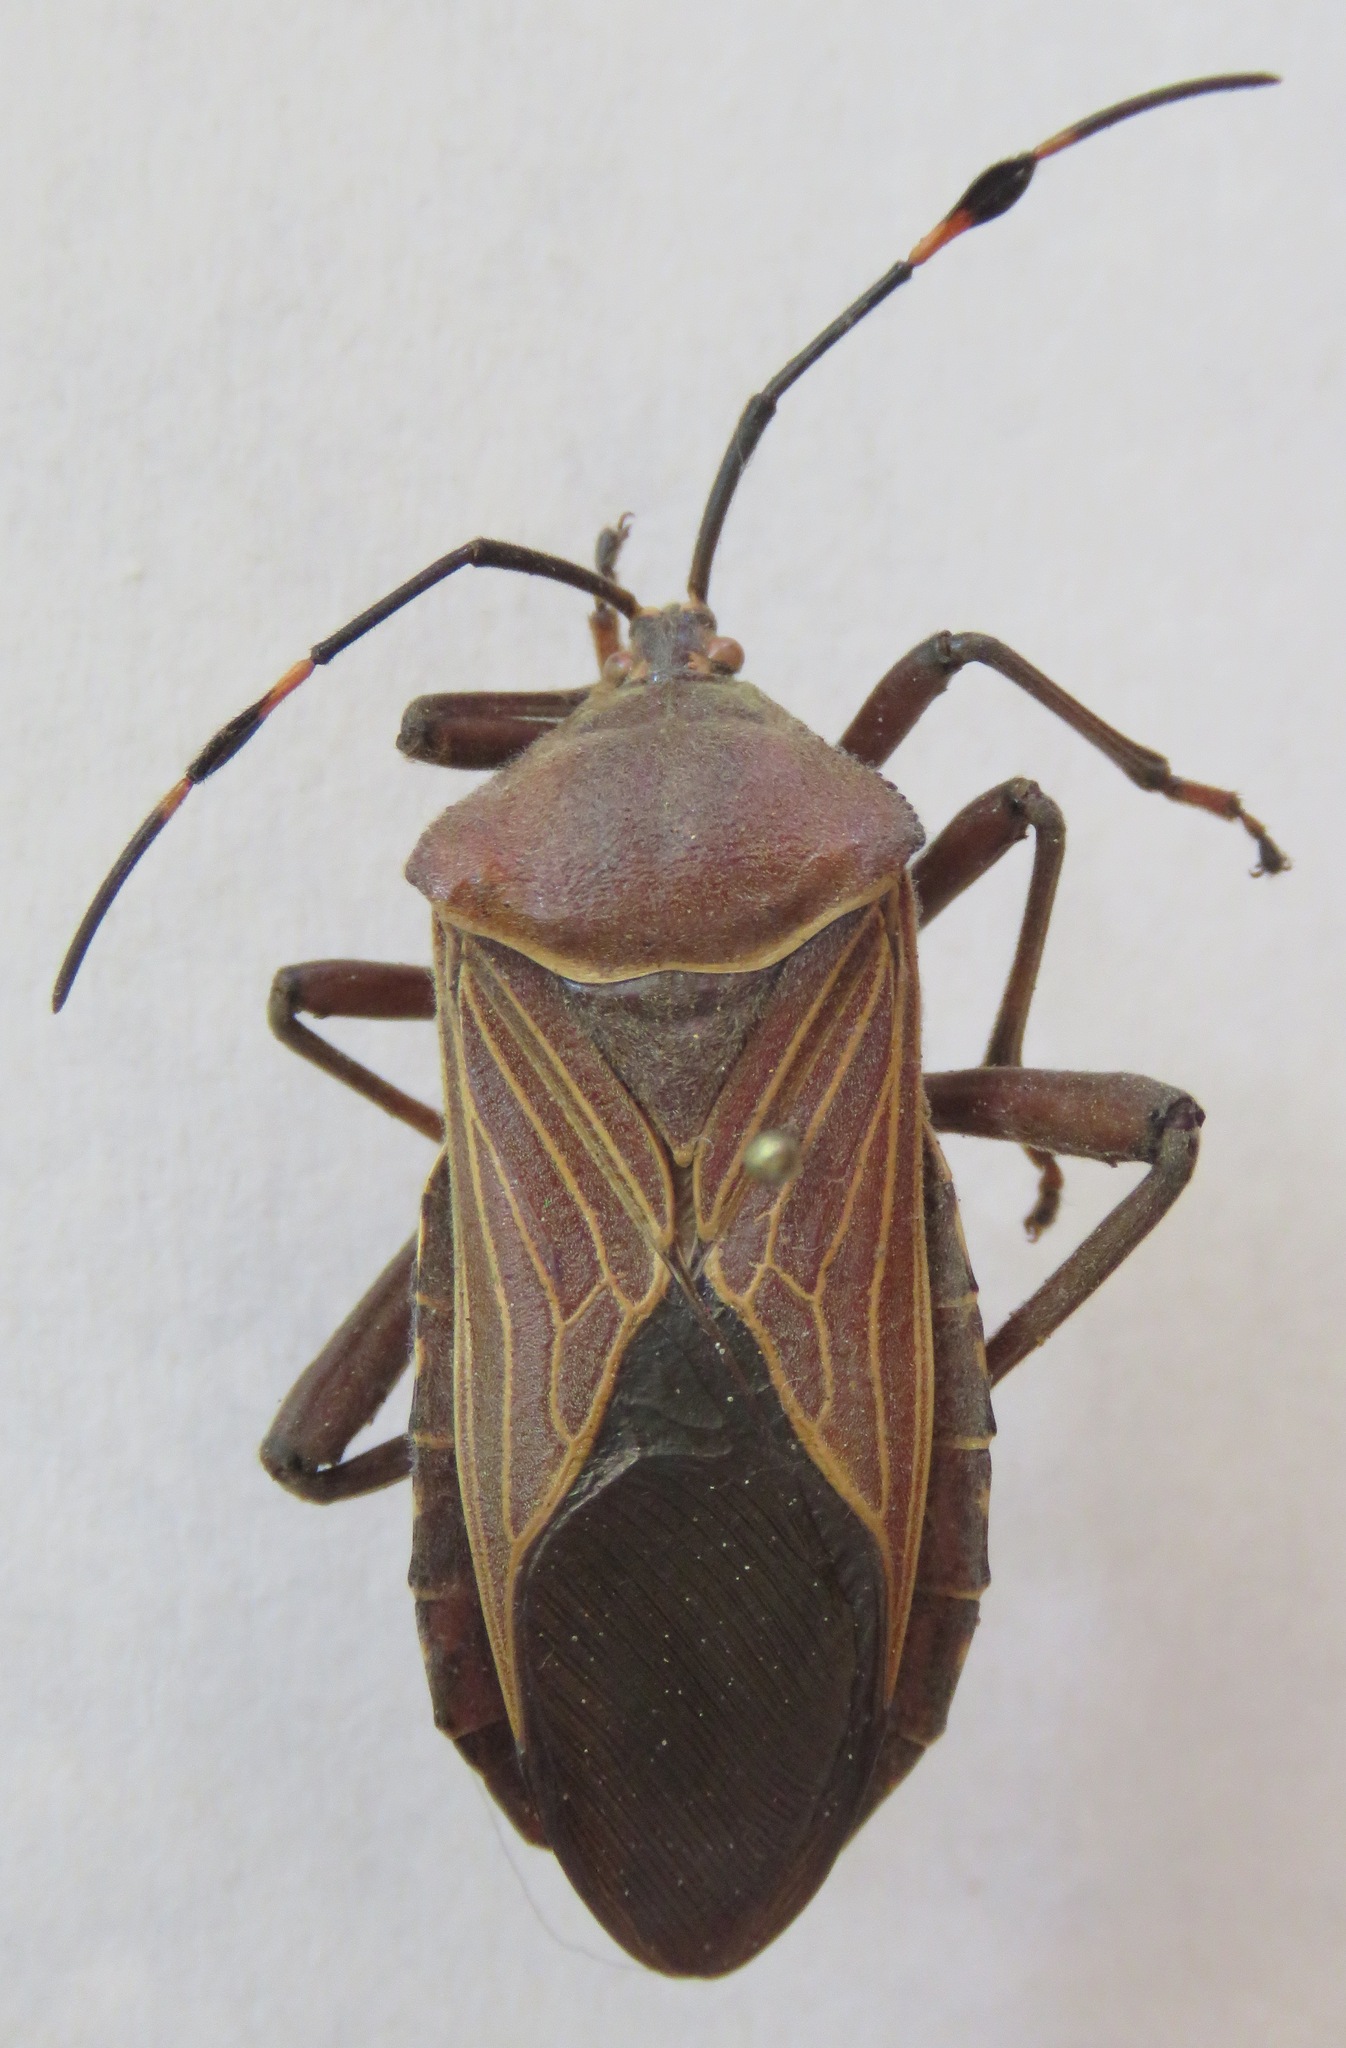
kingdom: Animalia
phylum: Arthropoda
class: Insecta
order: Hemiptera
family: Coreidae
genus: Pachylis
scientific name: Pachylis nervosus
